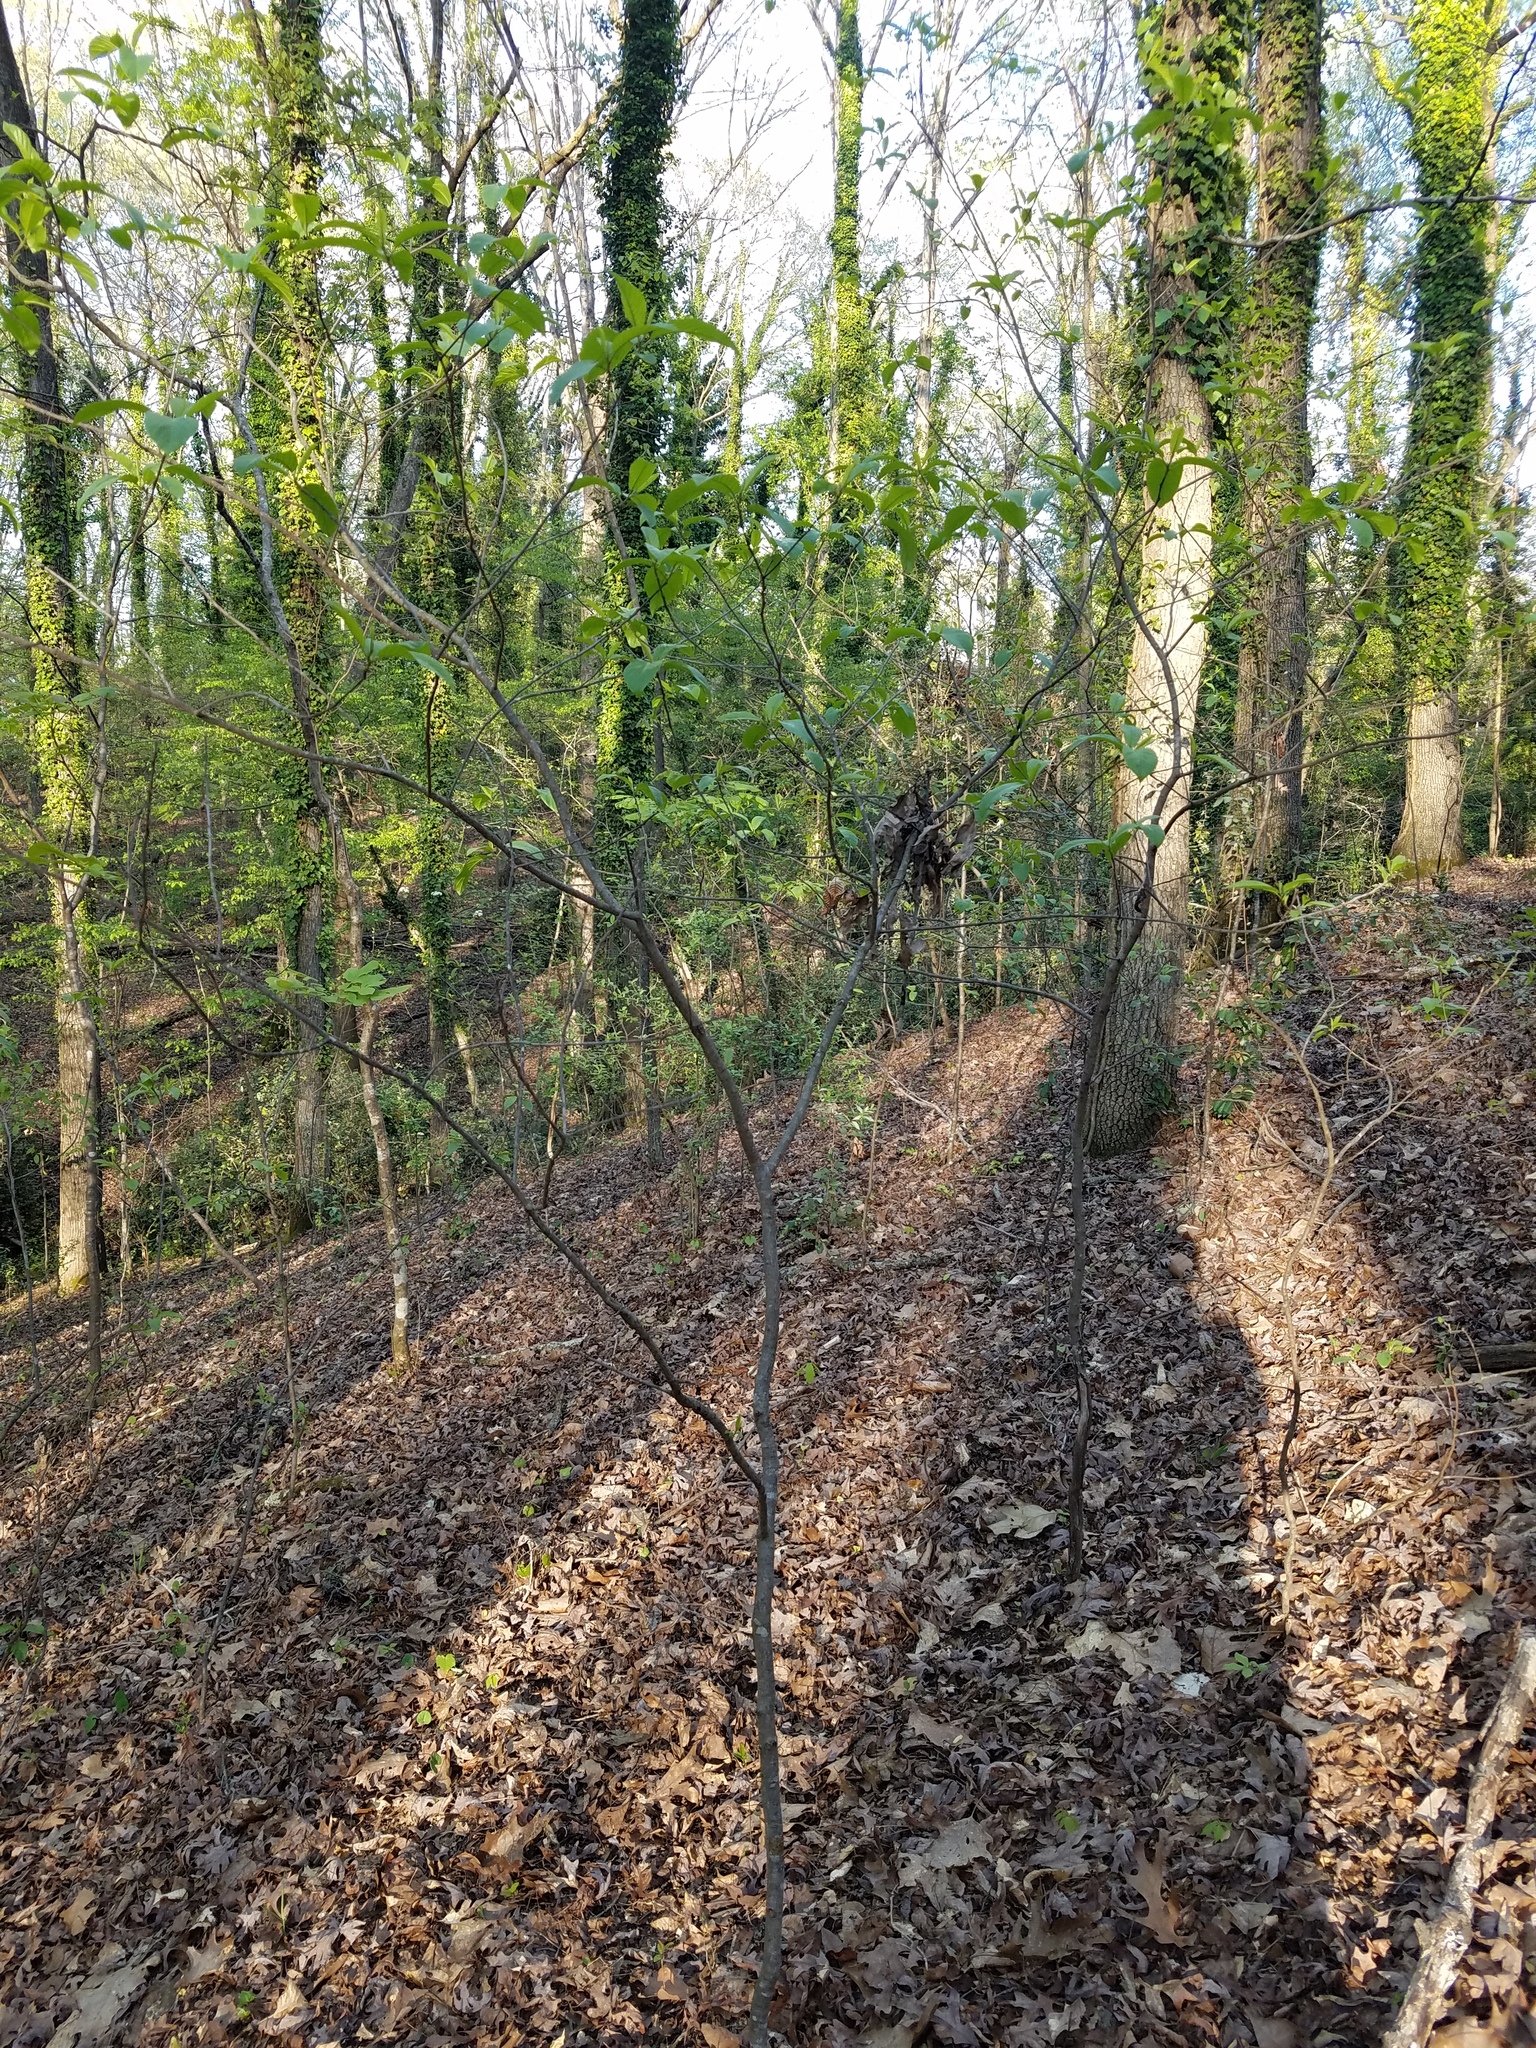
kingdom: Plantae
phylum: Tracheophyta
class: Magnoliopsida
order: Rosales
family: Rhamnaceae
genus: Frangula
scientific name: Frangula caroliniana
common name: Carolina buckthorn
